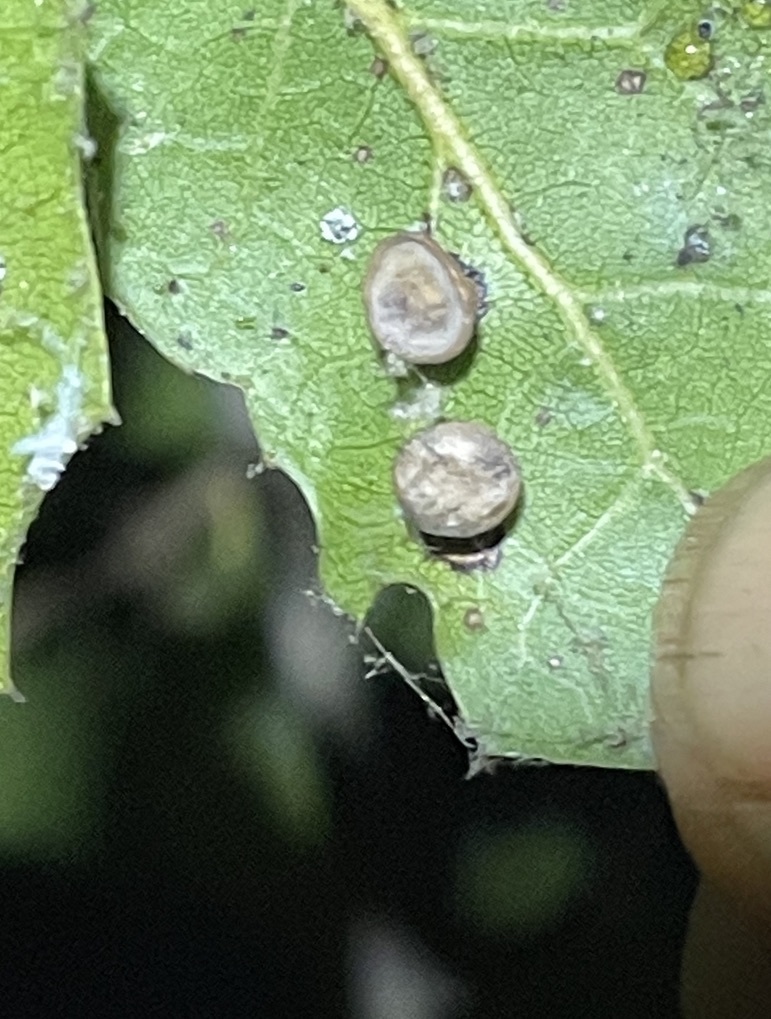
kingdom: Animalia
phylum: Arthropoda
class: Insecta
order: Hymenoptera
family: Cynipidae
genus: Amphibolips
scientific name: Amphibolips quercuspomiformis
